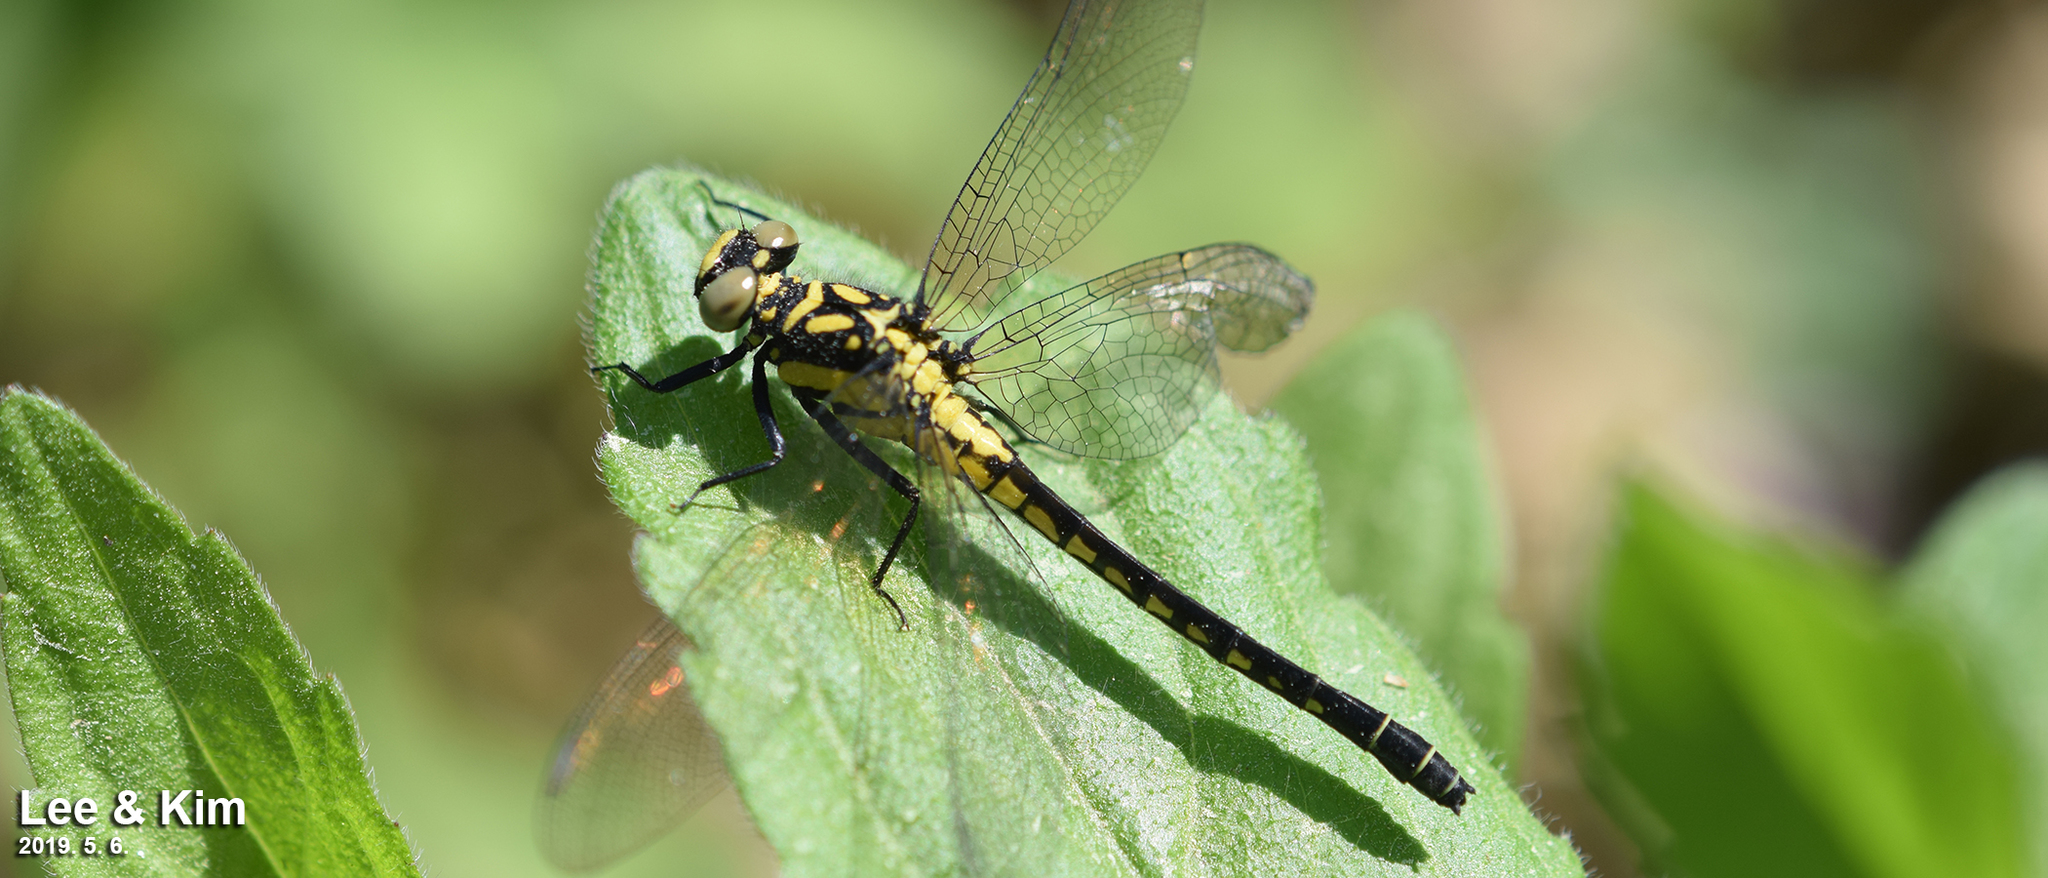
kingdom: Animalia
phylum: Arthropoda
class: Insecta
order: Odonata
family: Gomphidae
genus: Davidius
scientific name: Davidius lunatus
